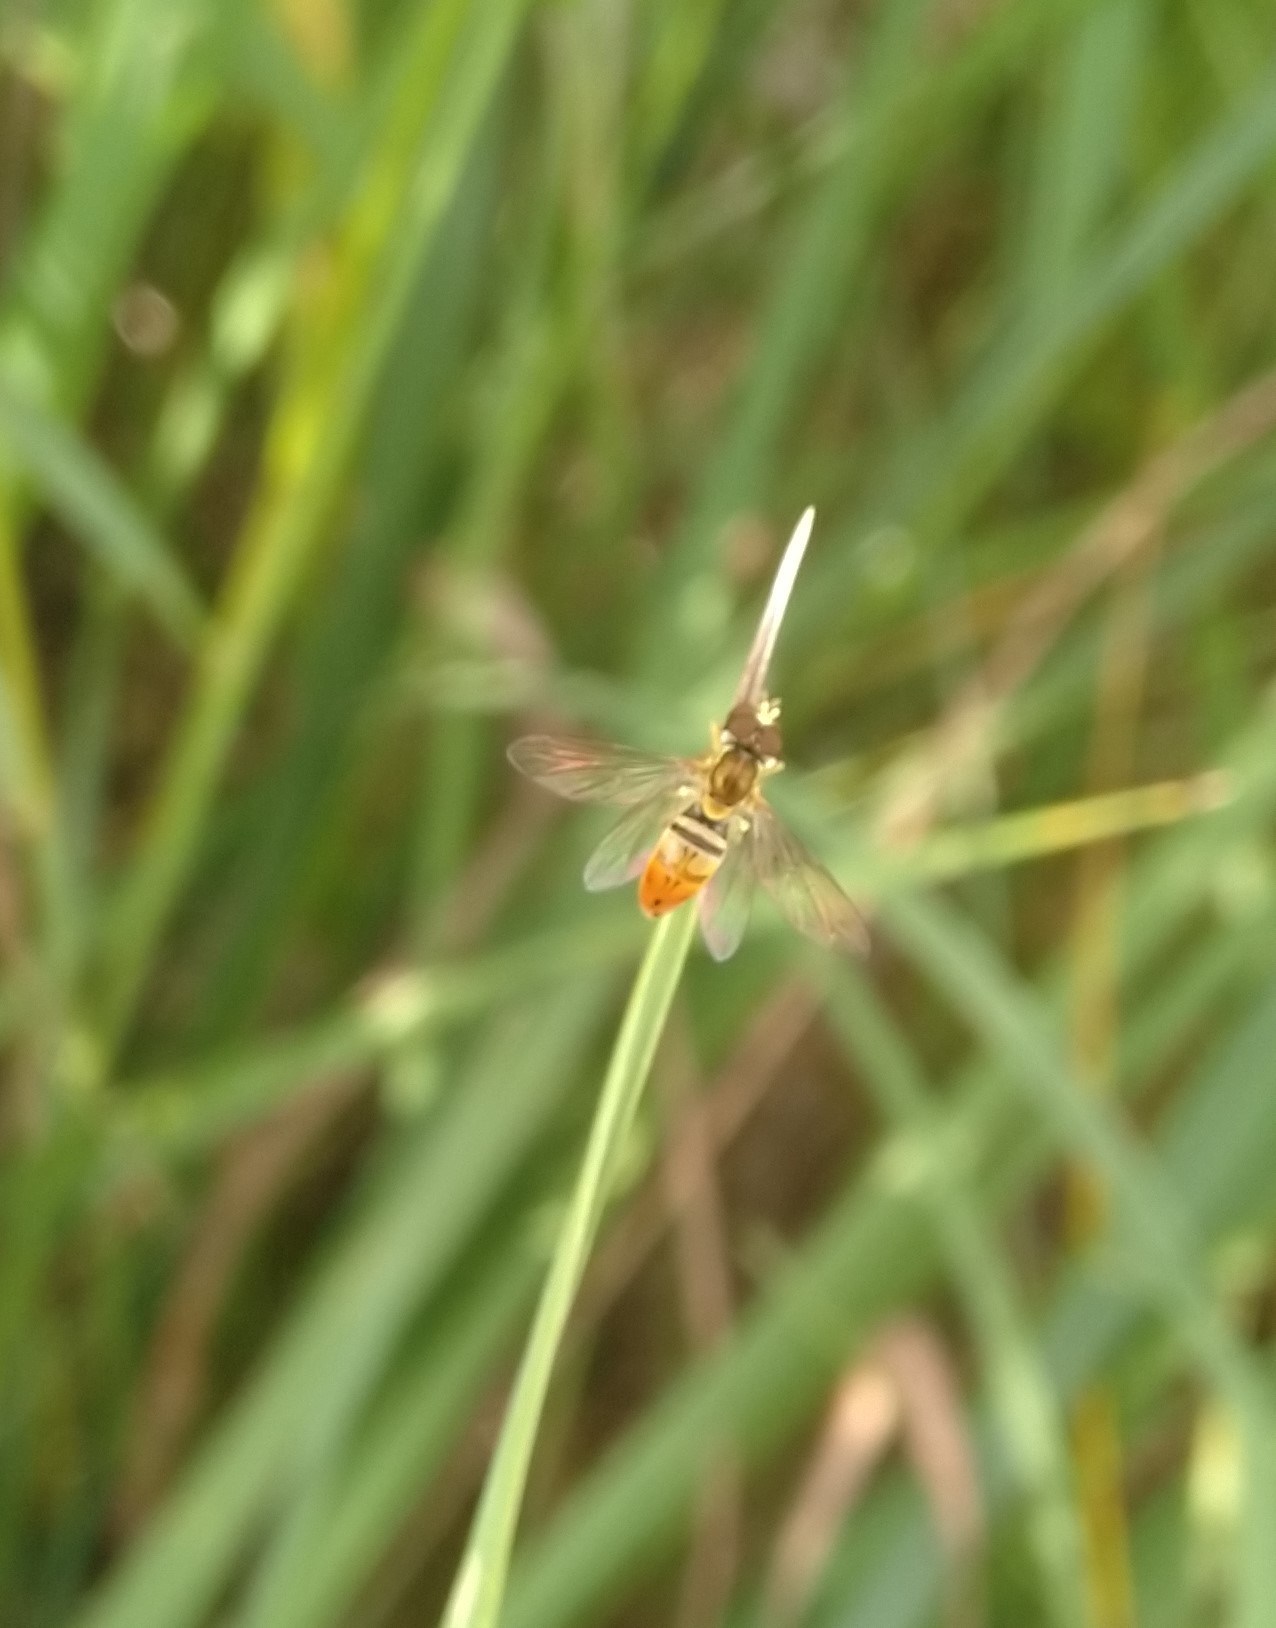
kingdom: Animalia
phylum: Arthropoda
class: Insecta
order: Diptera
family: Syrphidae
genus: Toxomerus
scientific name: Toxomerus marginatus
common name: Syrphid fly
